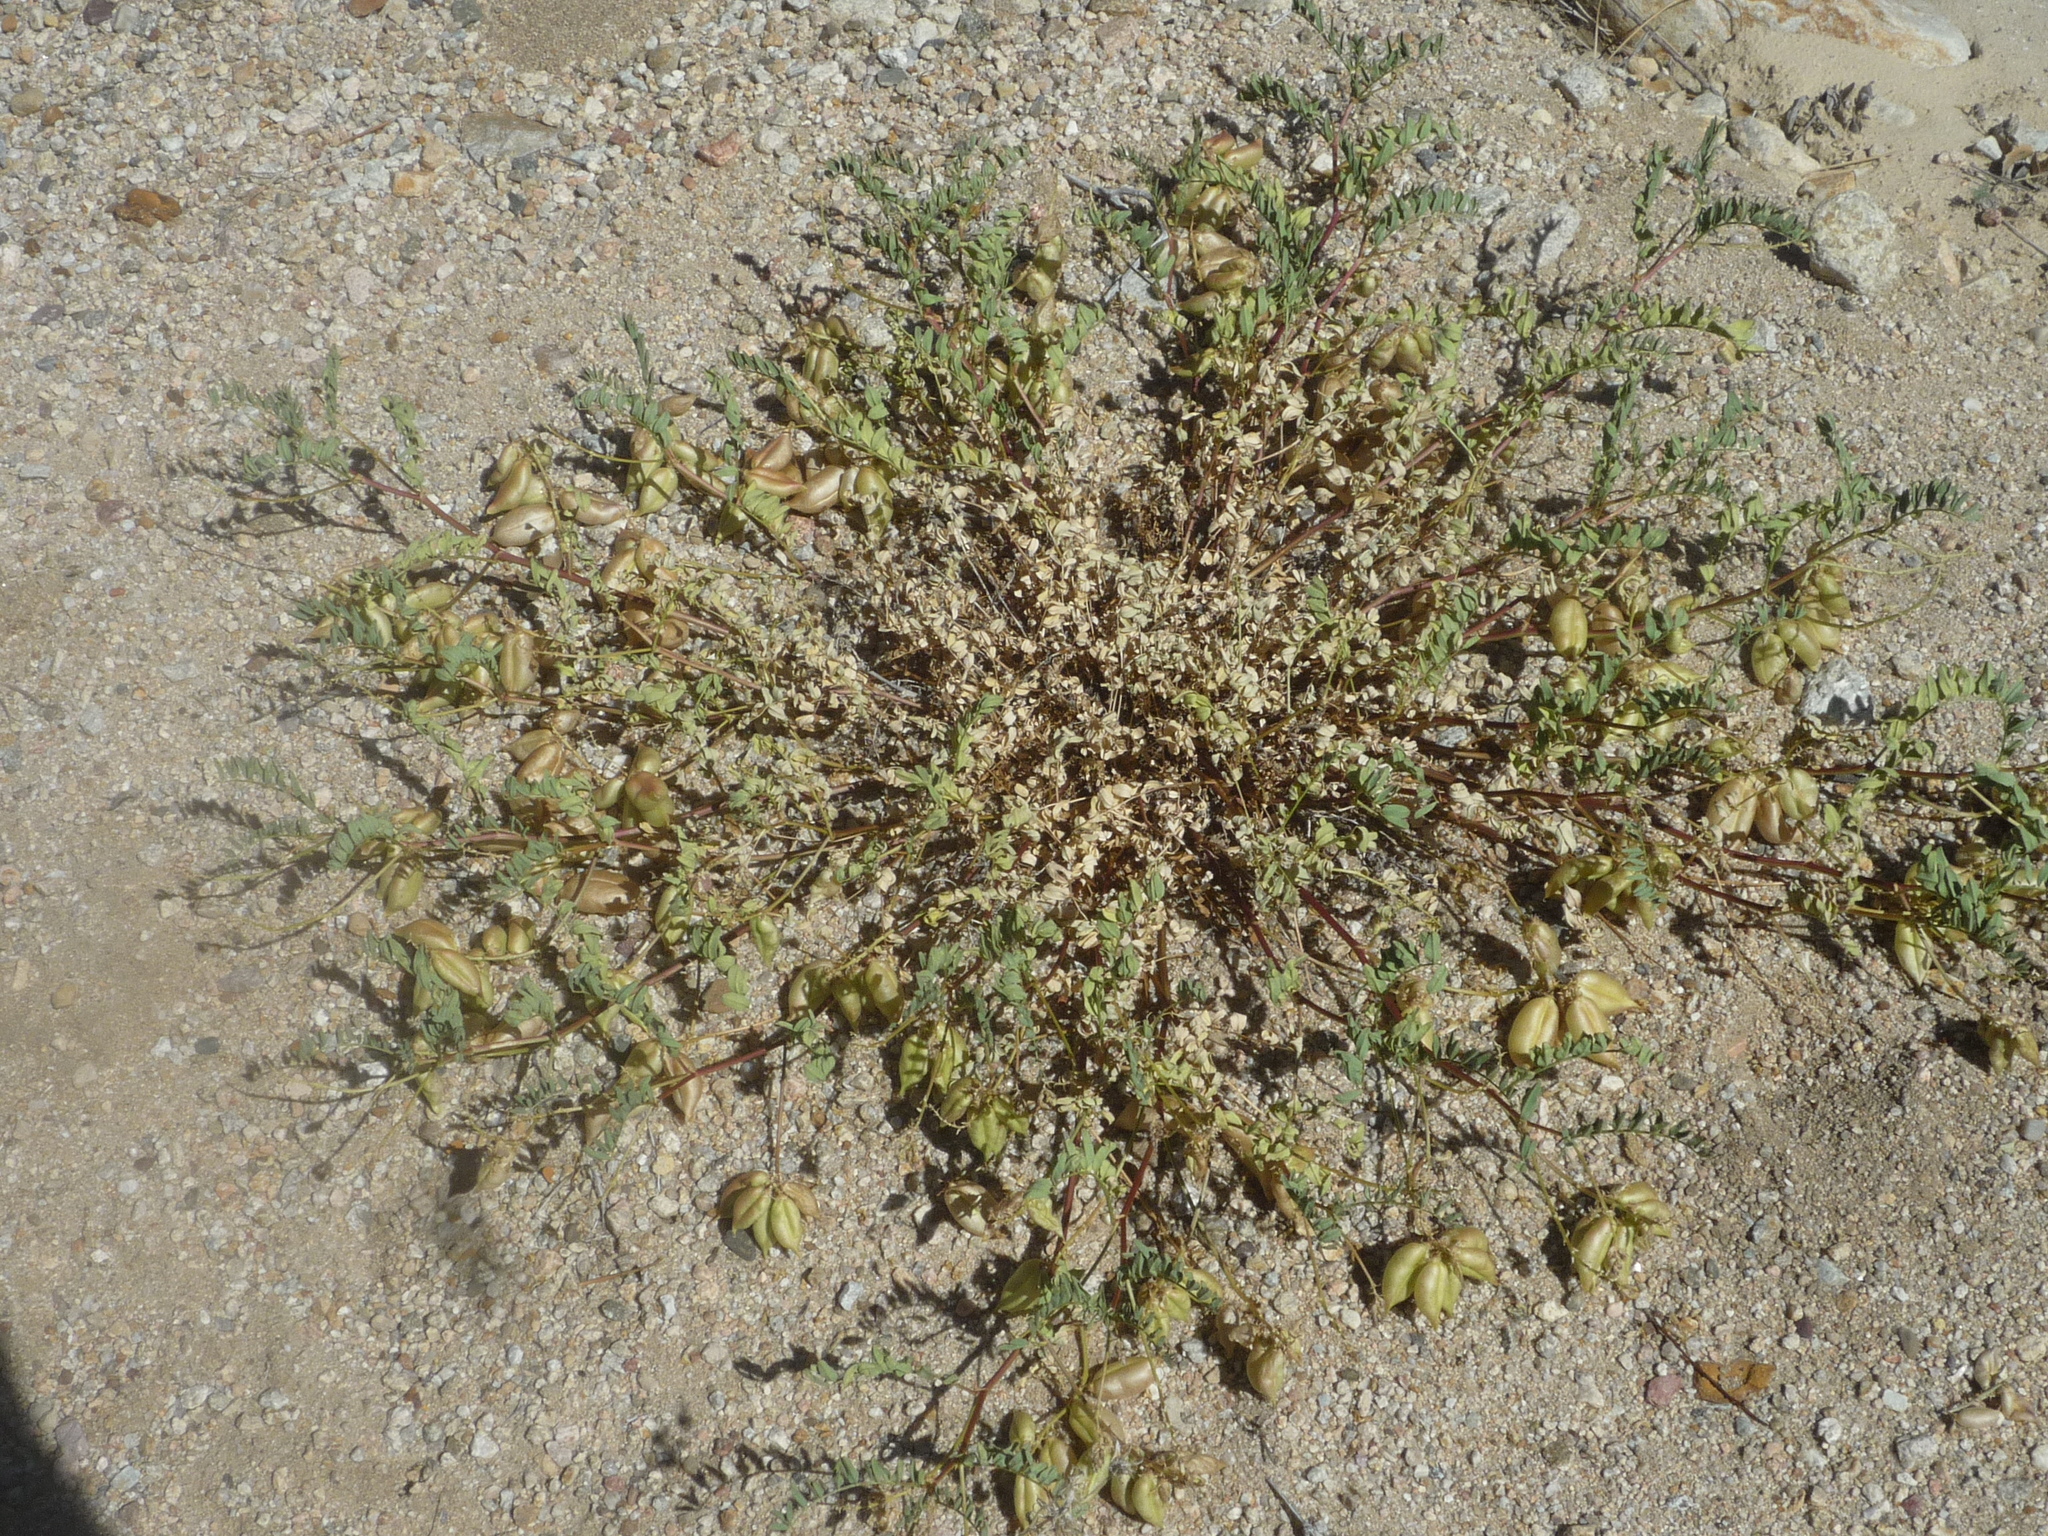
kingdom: Plantae
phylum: Tracheophyta
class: Magnoliopsida
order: Fabales
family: Fabaceae
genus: Astragalus
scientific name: Astragalus douglasii
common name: Jacumba milkvetch
